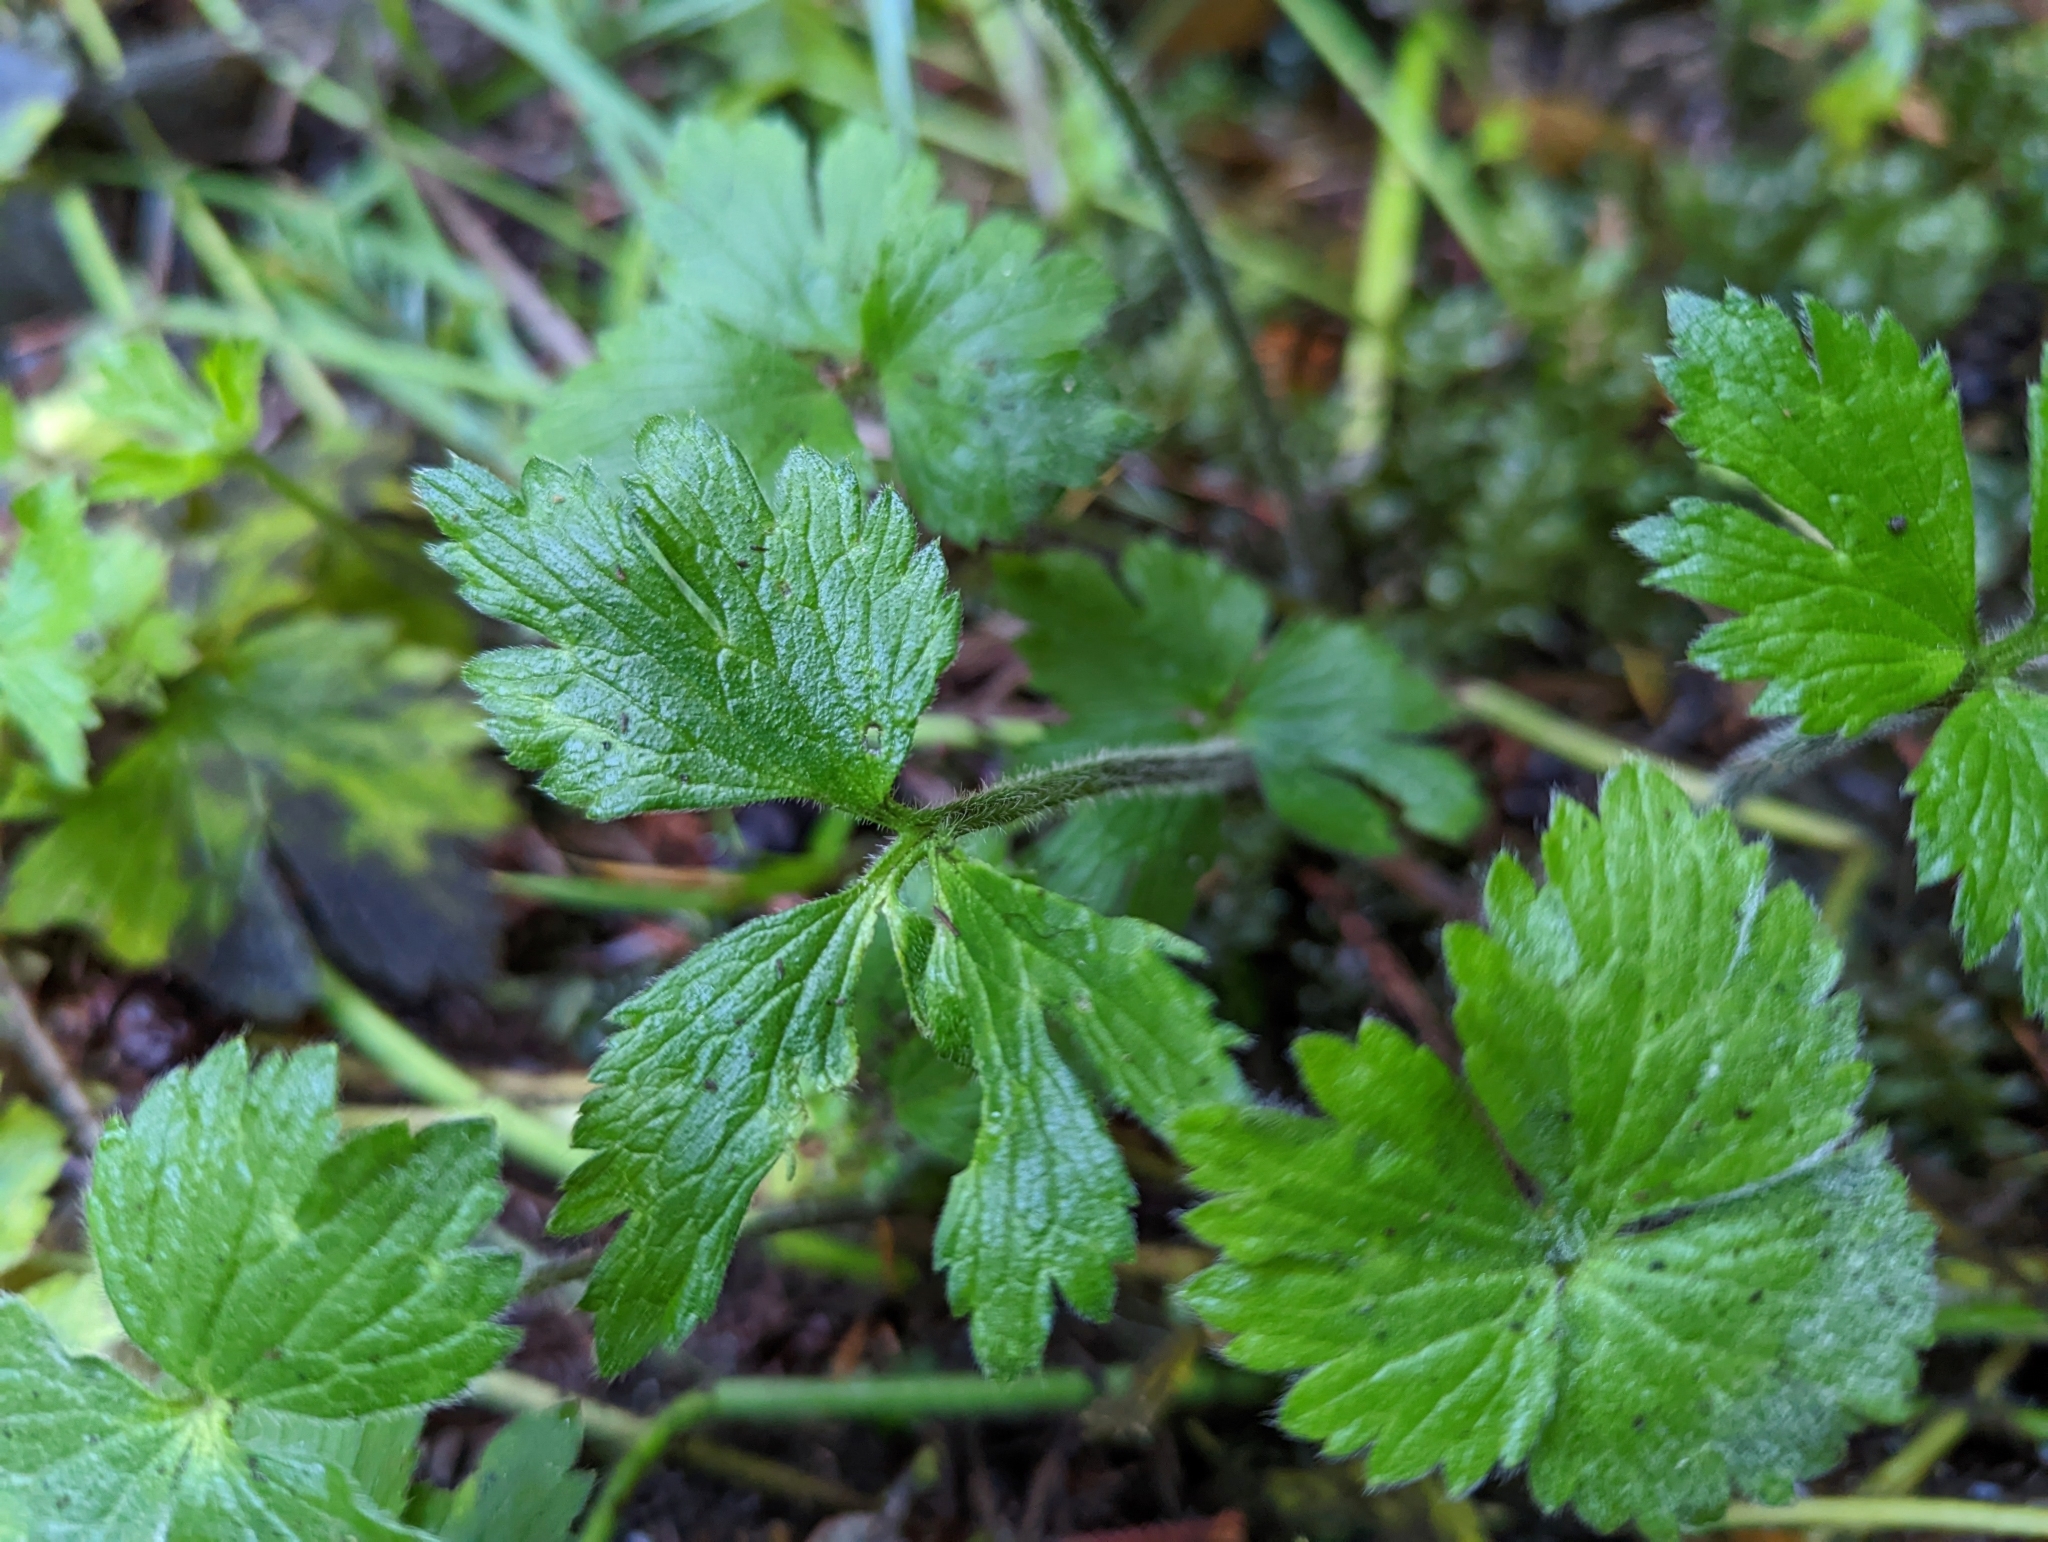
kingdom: Plantae
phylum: Tracheophyta
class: Magnoliopsida
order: Ranunculales
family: Ranunculaceae
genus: Ranunculus
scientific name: Ranunculus repens
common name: Creeping buttercup
